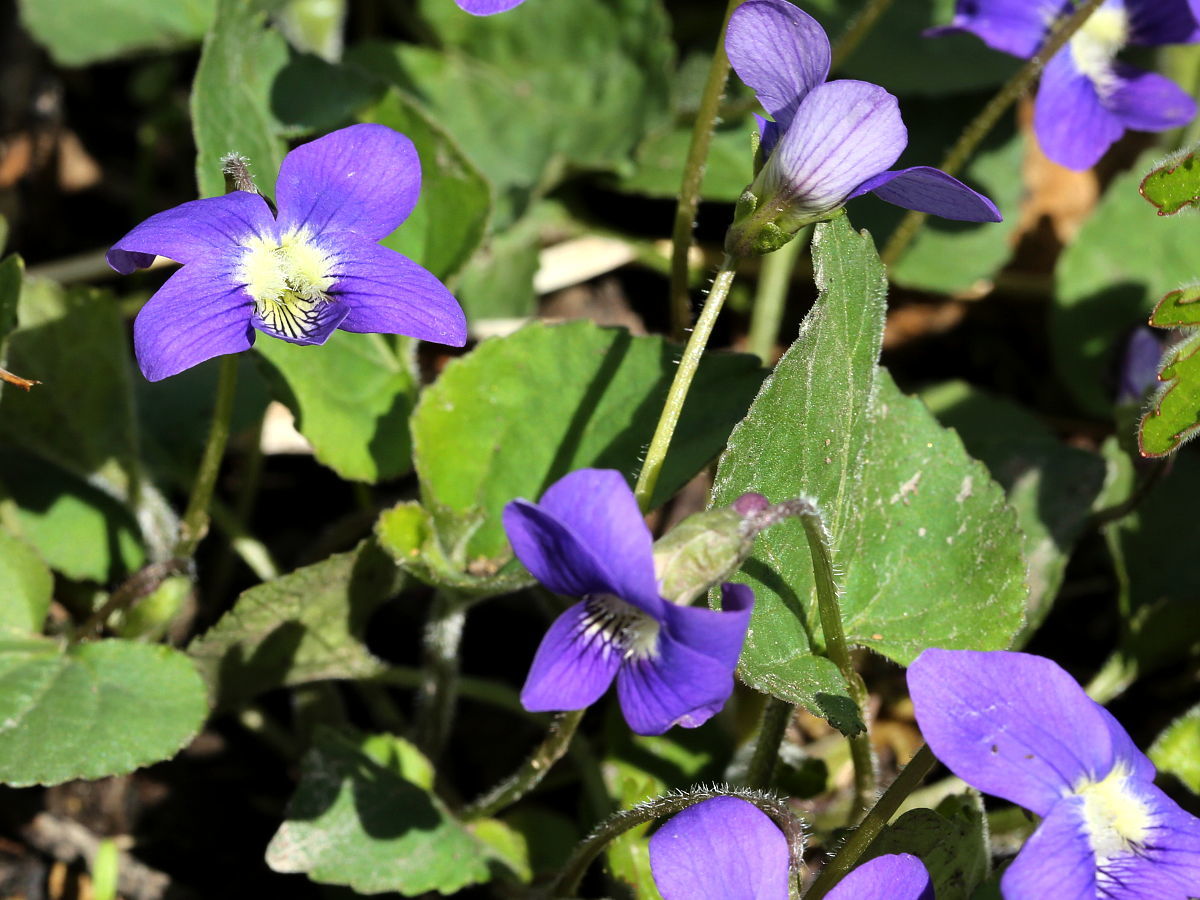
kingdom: Plantae
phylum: Tracheophyta
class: Magnoliopsida
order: Malpighiales
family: Violaceae
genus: Viola
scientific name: Viola sororia
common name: Dooryard violet
